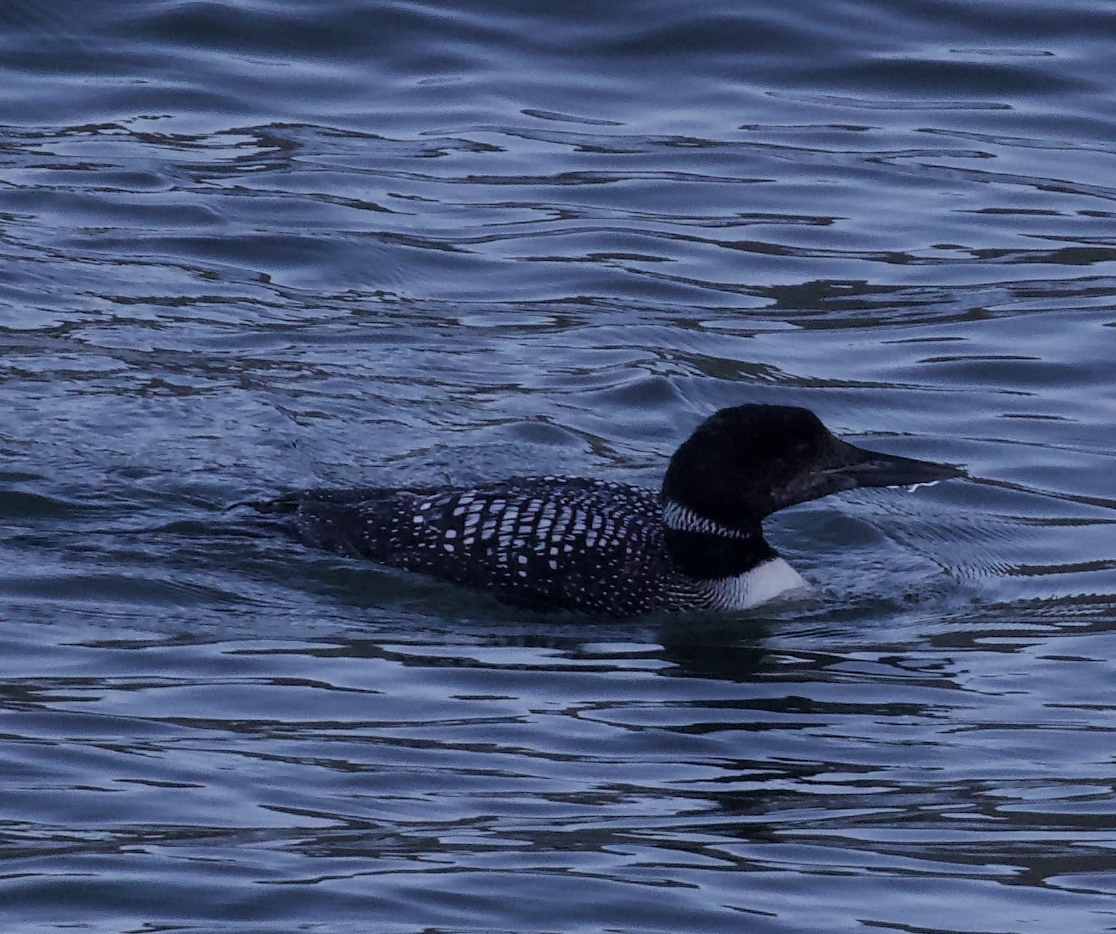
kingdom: Animalia
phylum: Chordata
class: Aves
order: Gaviiformes
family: Gaviidae
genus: Gavia
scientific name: Gavia immer
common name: Common loon
